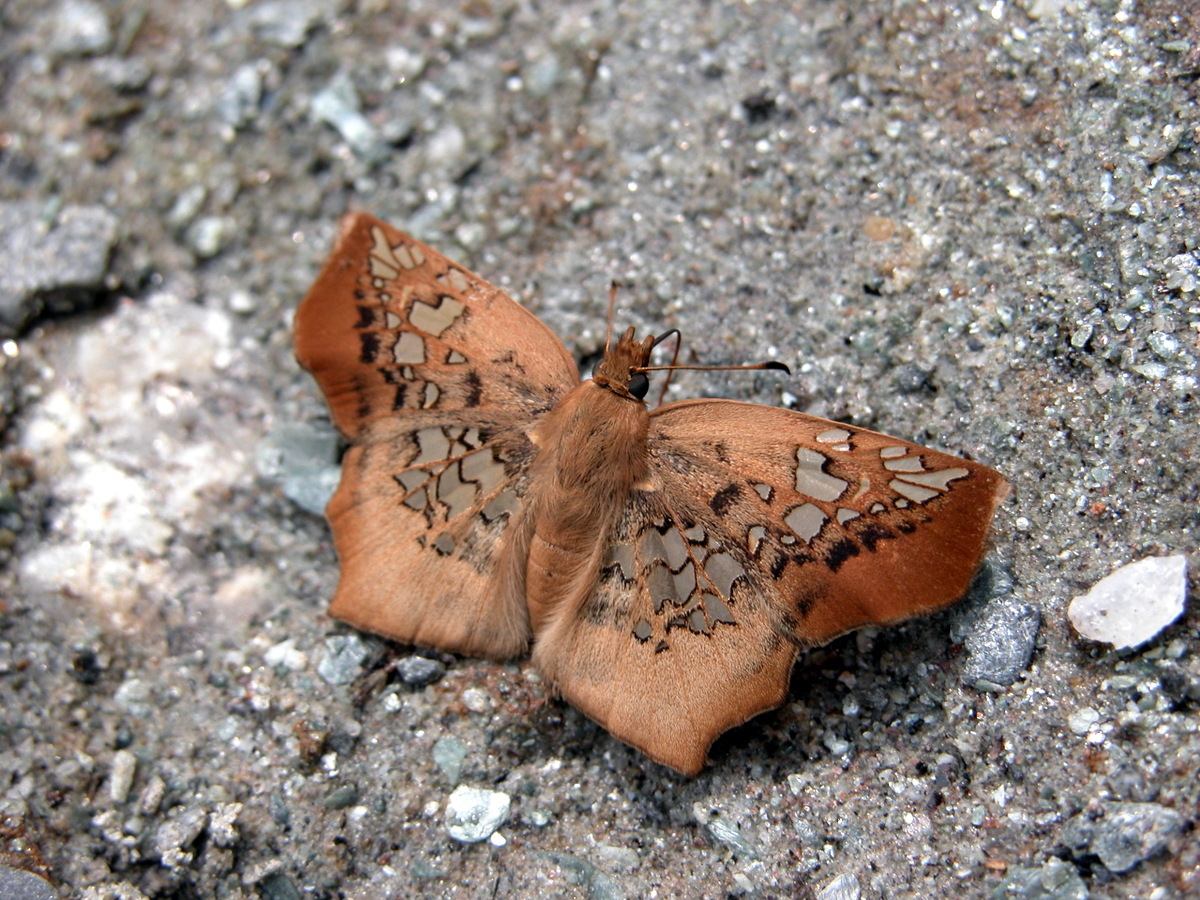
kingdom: Animalia
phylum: Arthropoda
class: Insecta
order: Lepidoptera
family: Hesperiidae
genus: Ctenoptilum
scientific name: Ctenoptilum vasava
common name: Tawny angle
